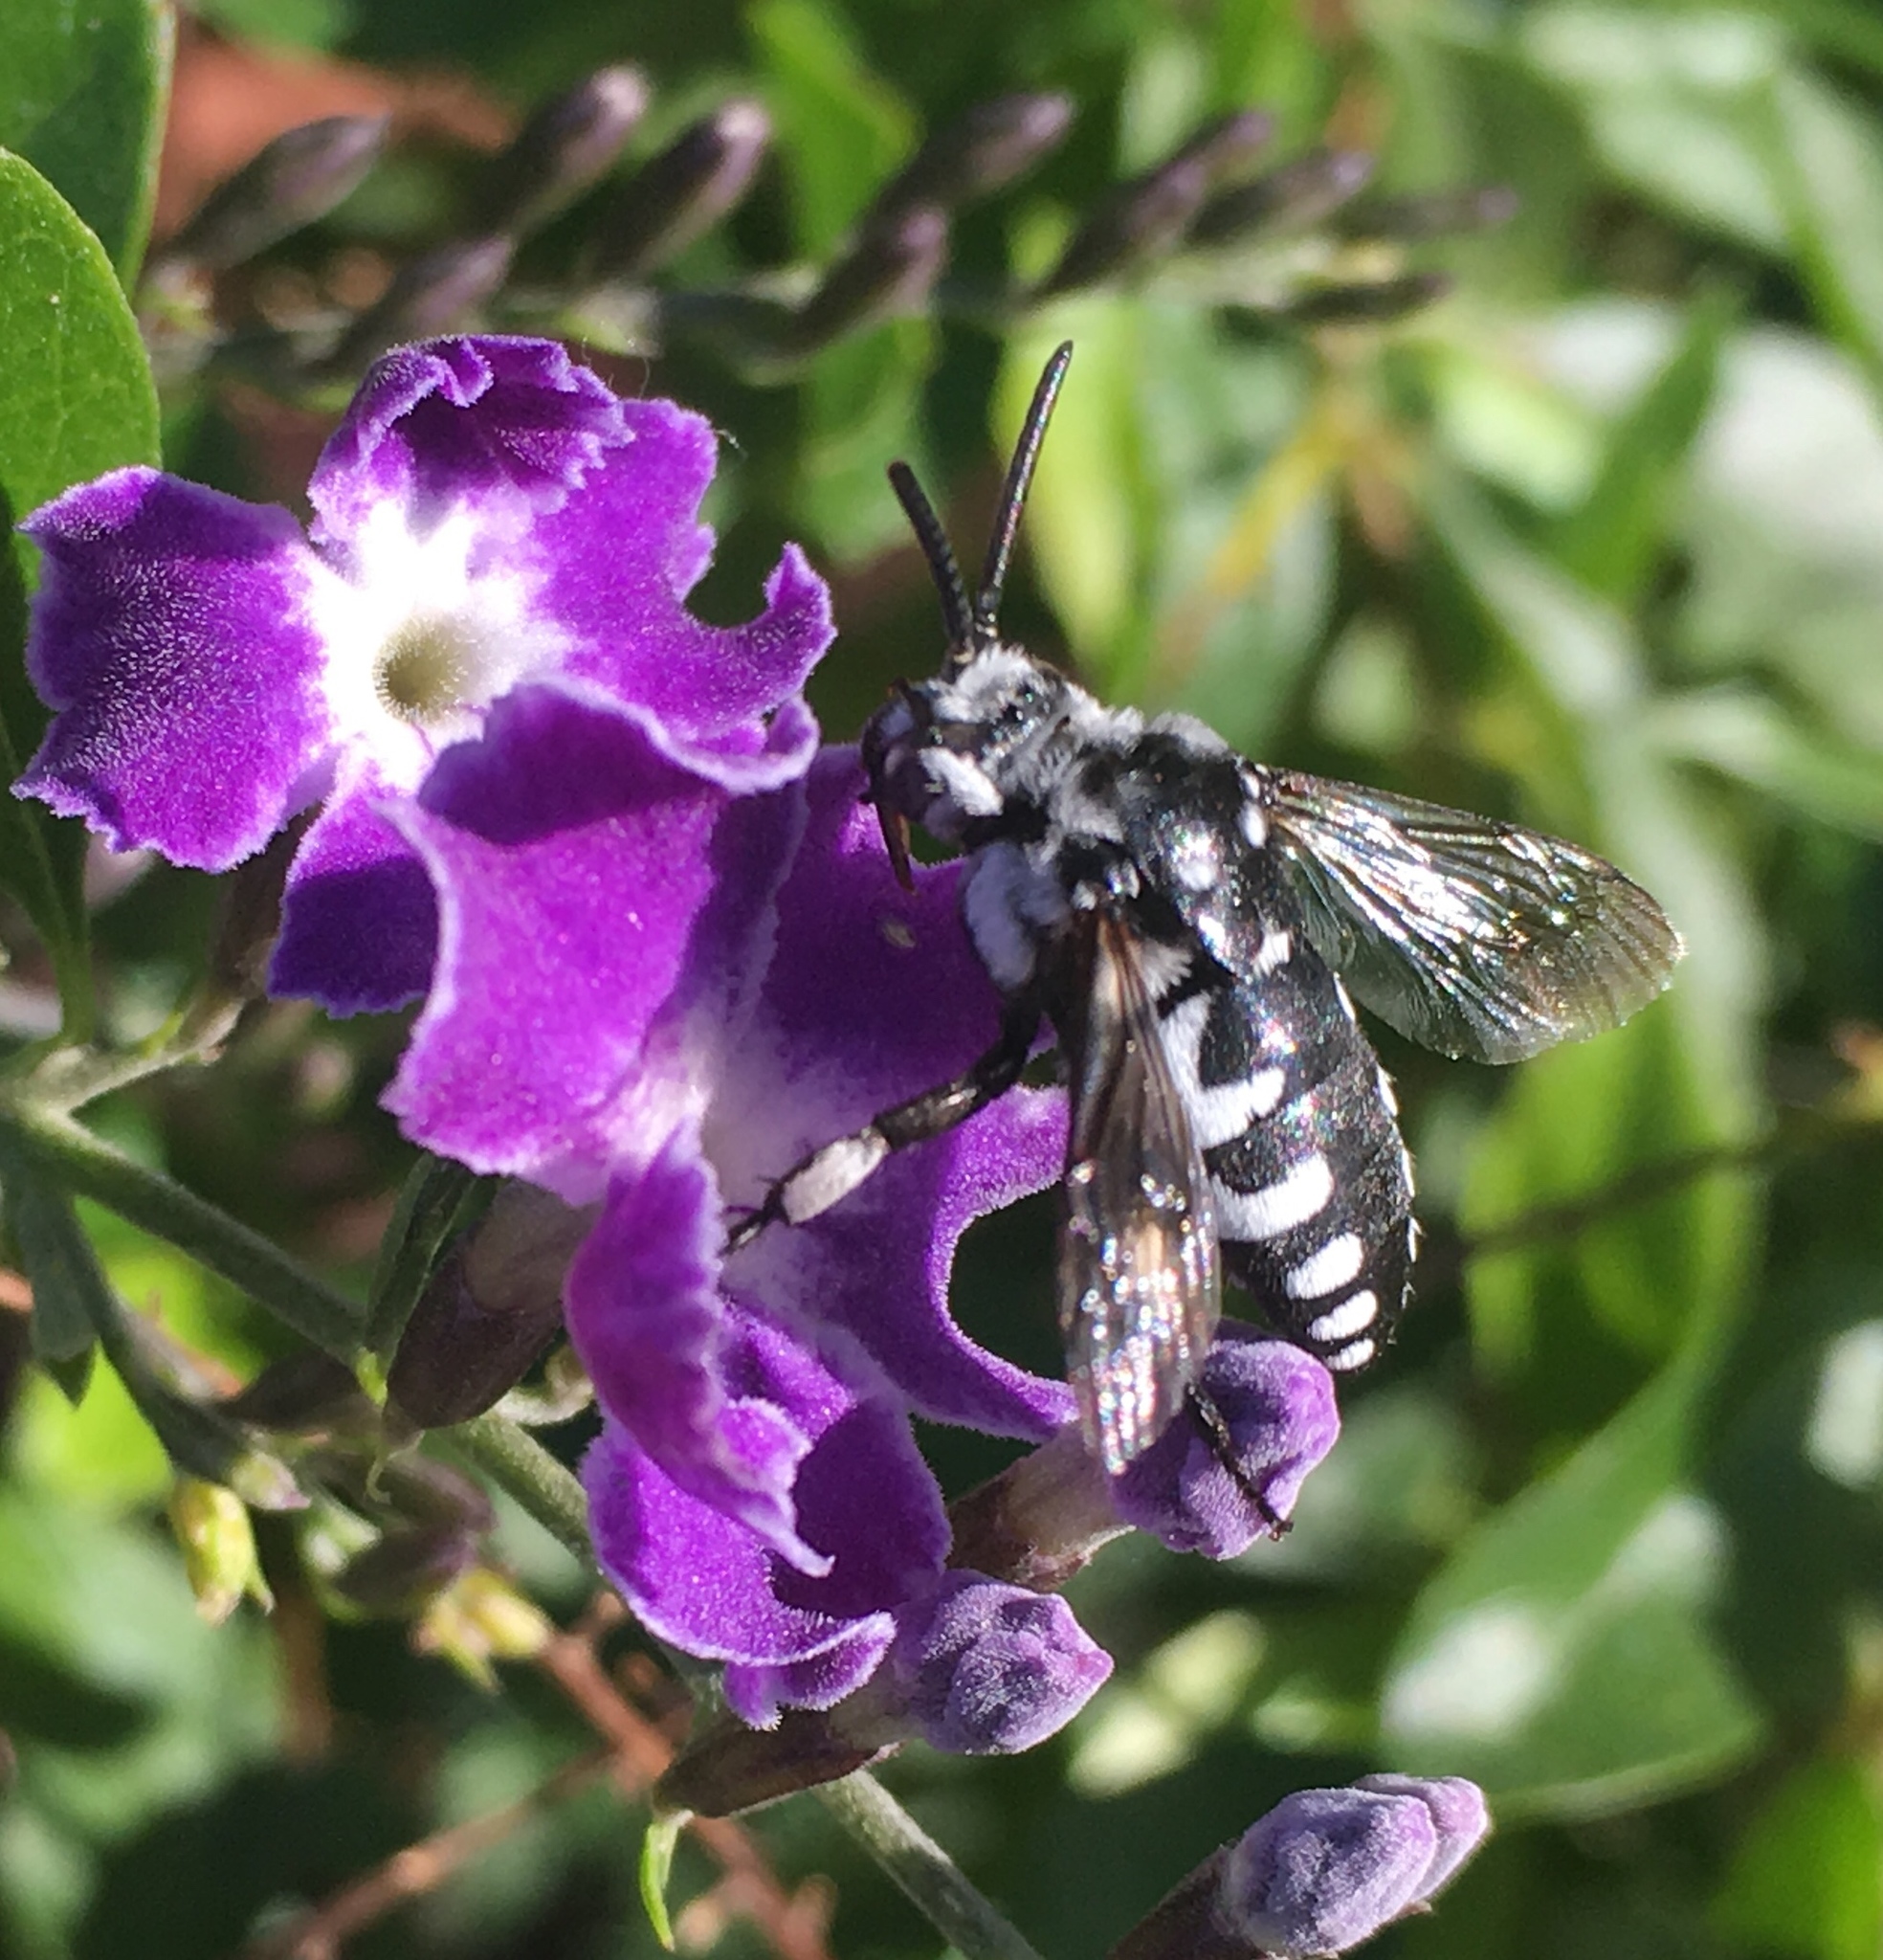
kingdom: Animalia
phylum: Arthropoda
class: Insecta
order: Hymenoptera
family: Apidae
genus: Thyreus
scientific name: Thyreus histrionicus
